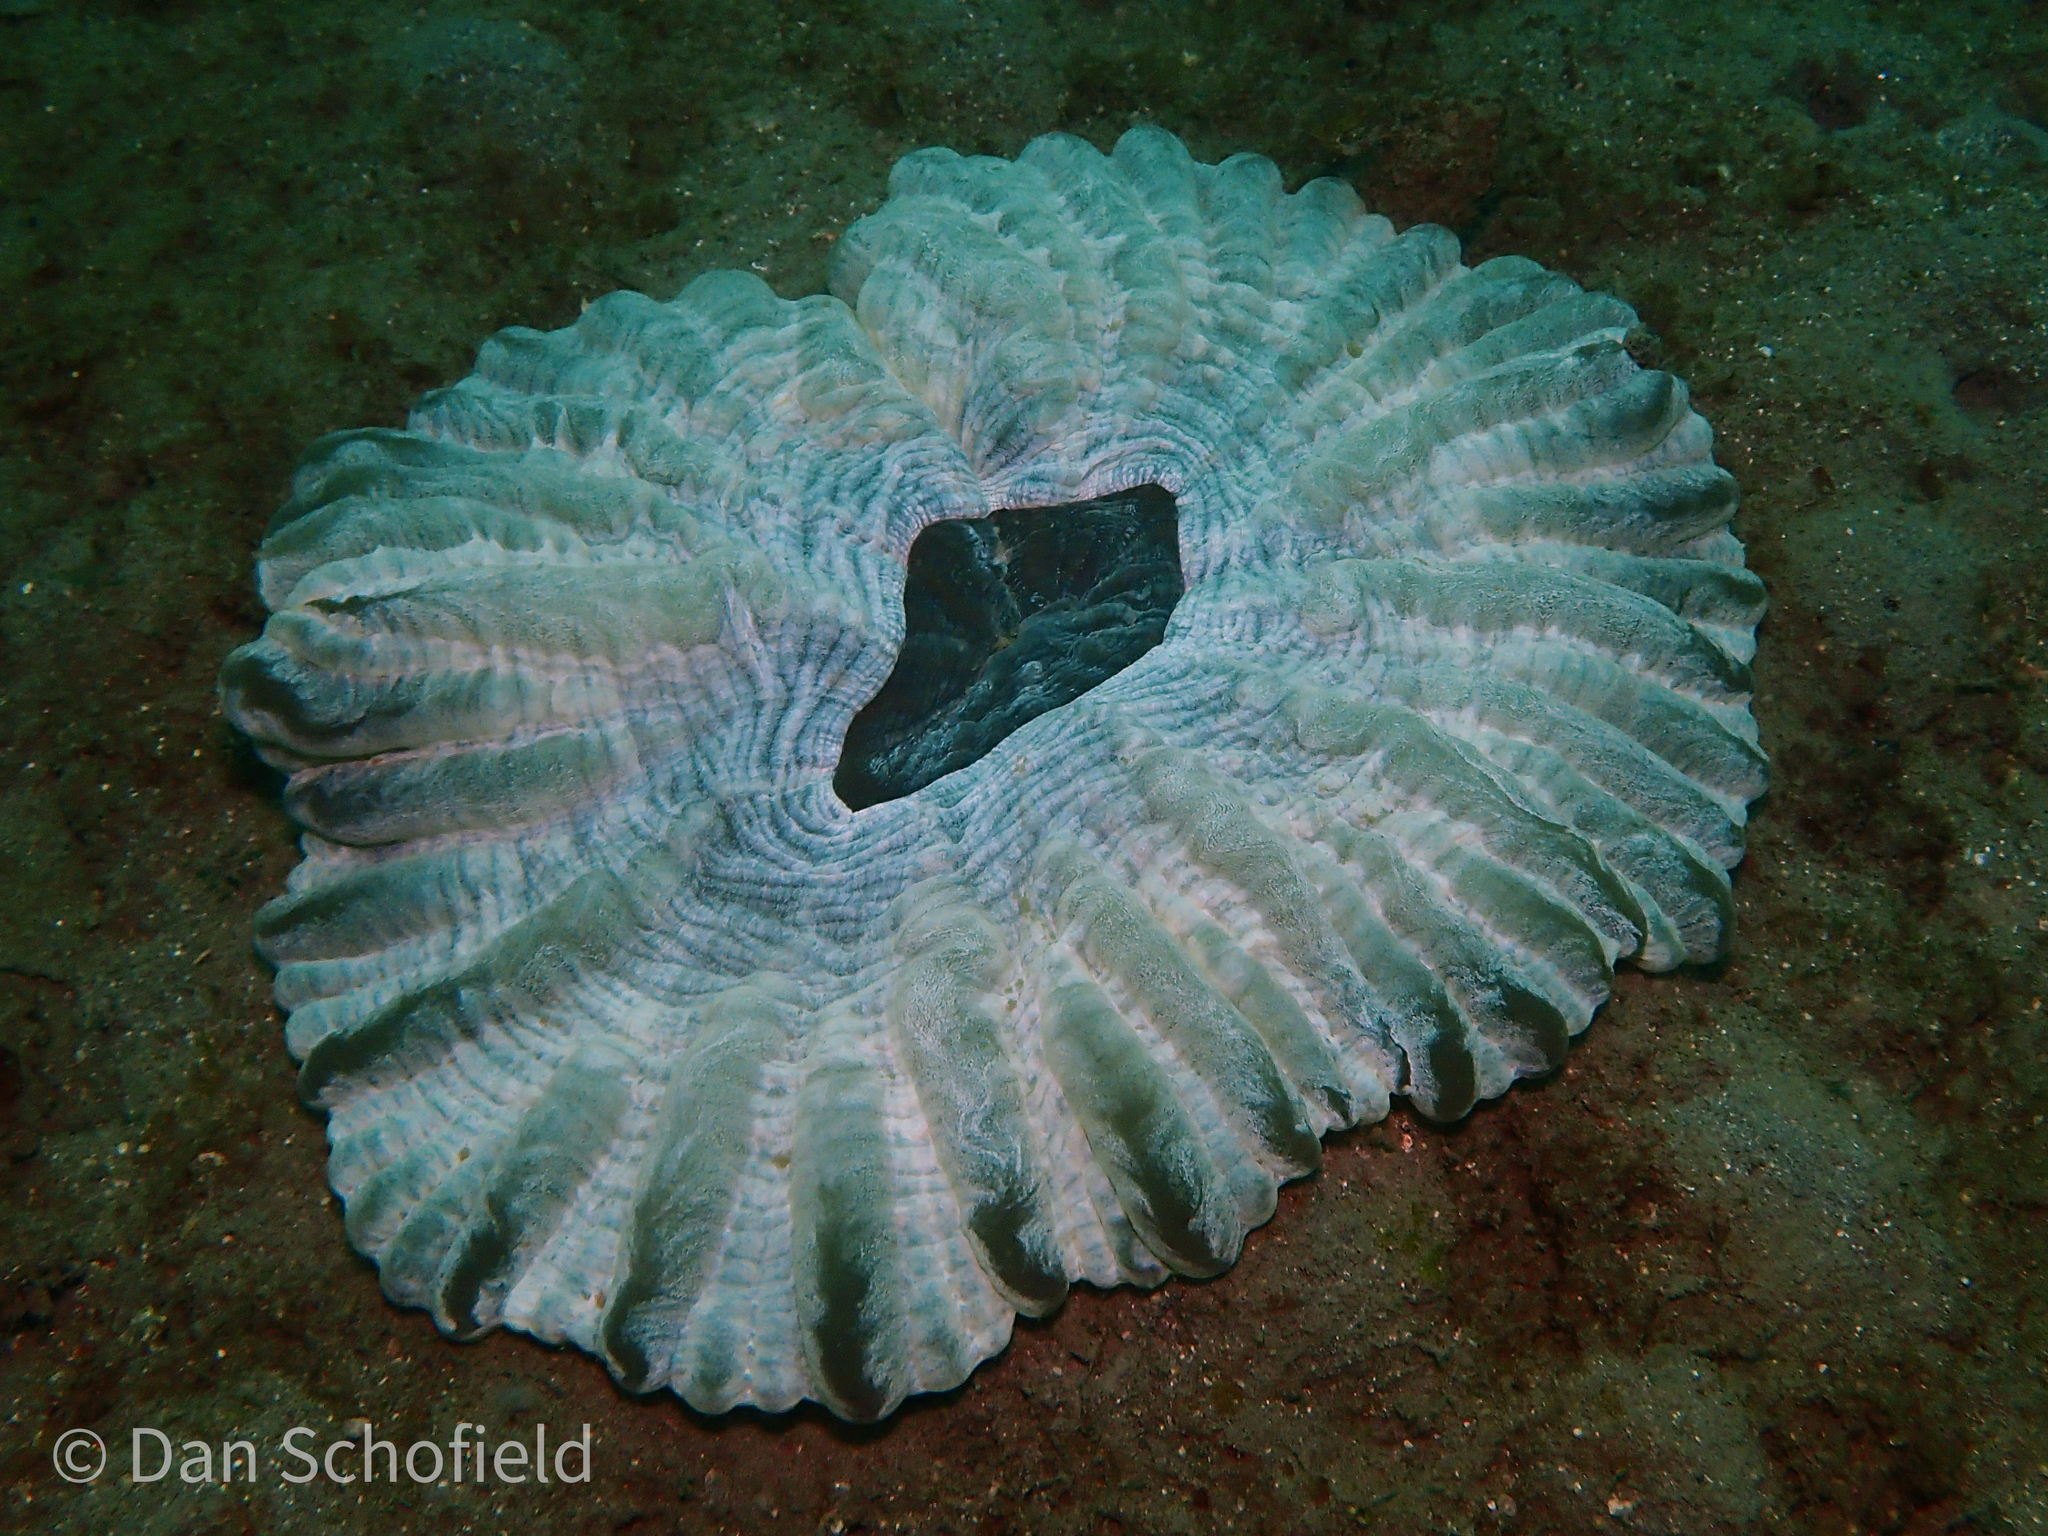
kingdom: Animalia
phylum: Cnidaria
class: Anthozoa
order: Scleractinia
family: Lobophylliidae
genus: Cynarina
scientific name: Cynarina lacrymalis
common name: Solitary cup coral
